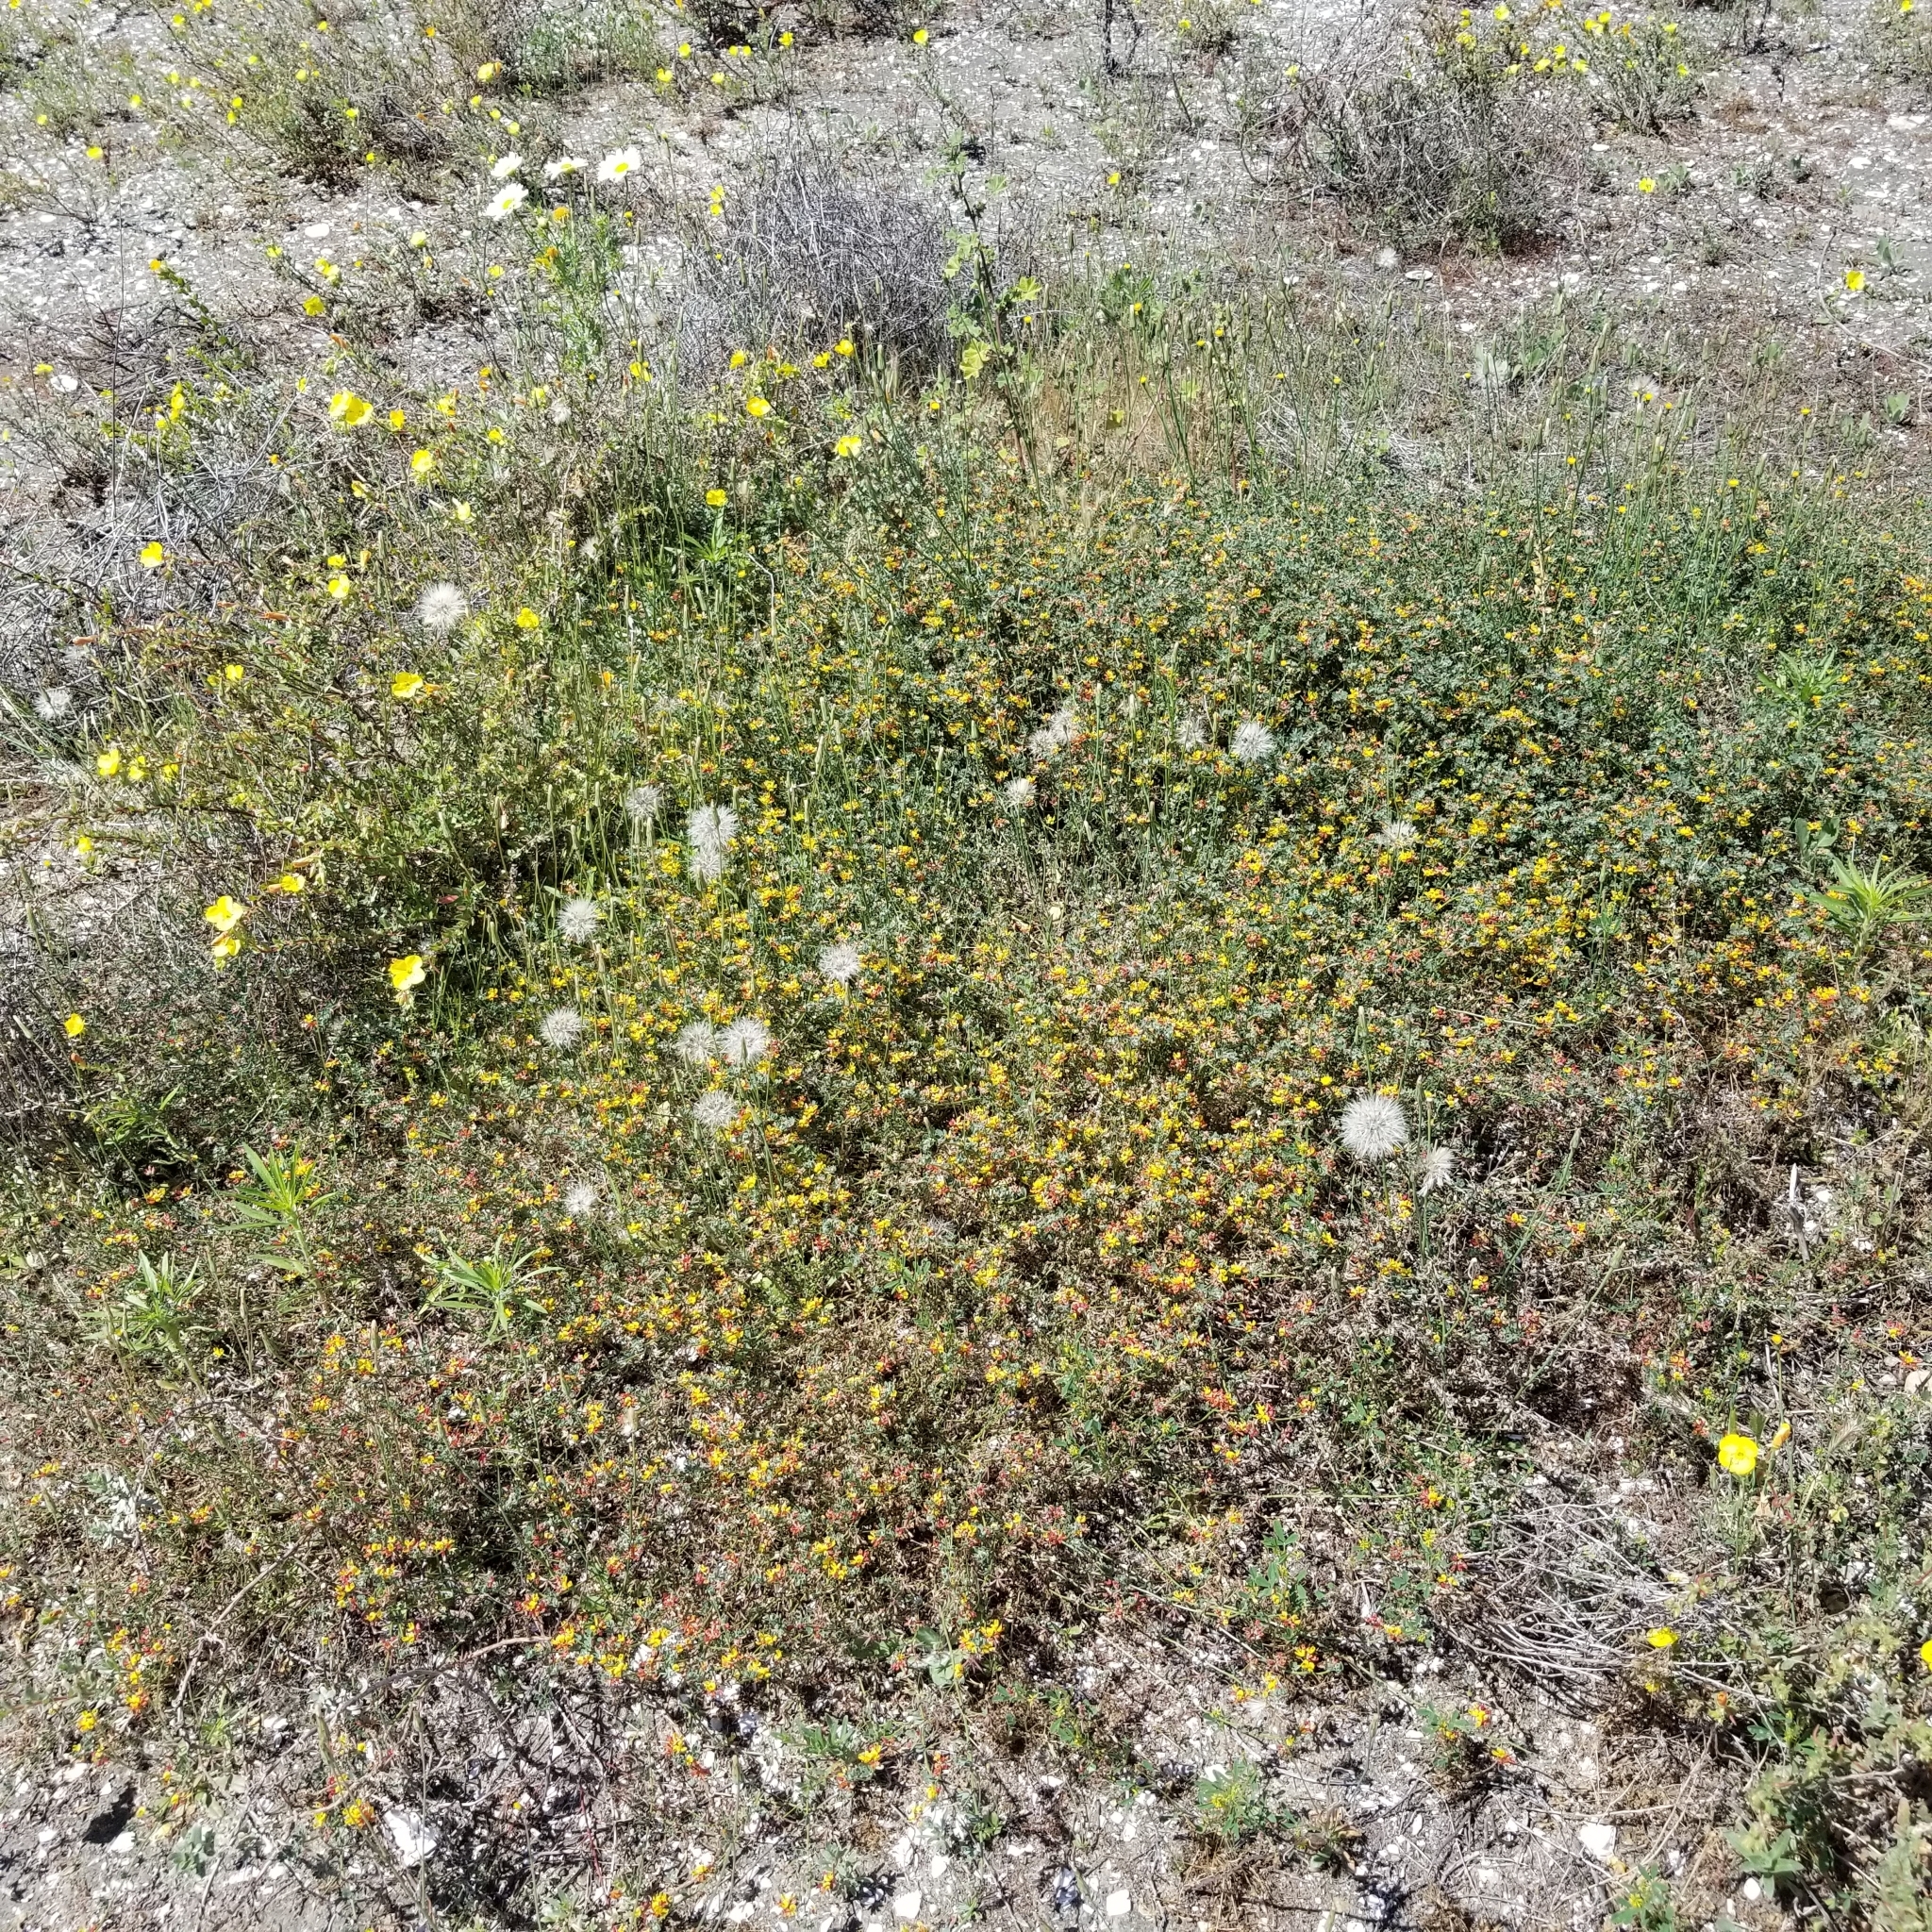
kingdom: Plantae
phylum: Tracheophyta
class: Magnoliopsida
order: Fabales
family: Fabaceae
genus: Acmispon
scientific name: Acmispon prostratus
